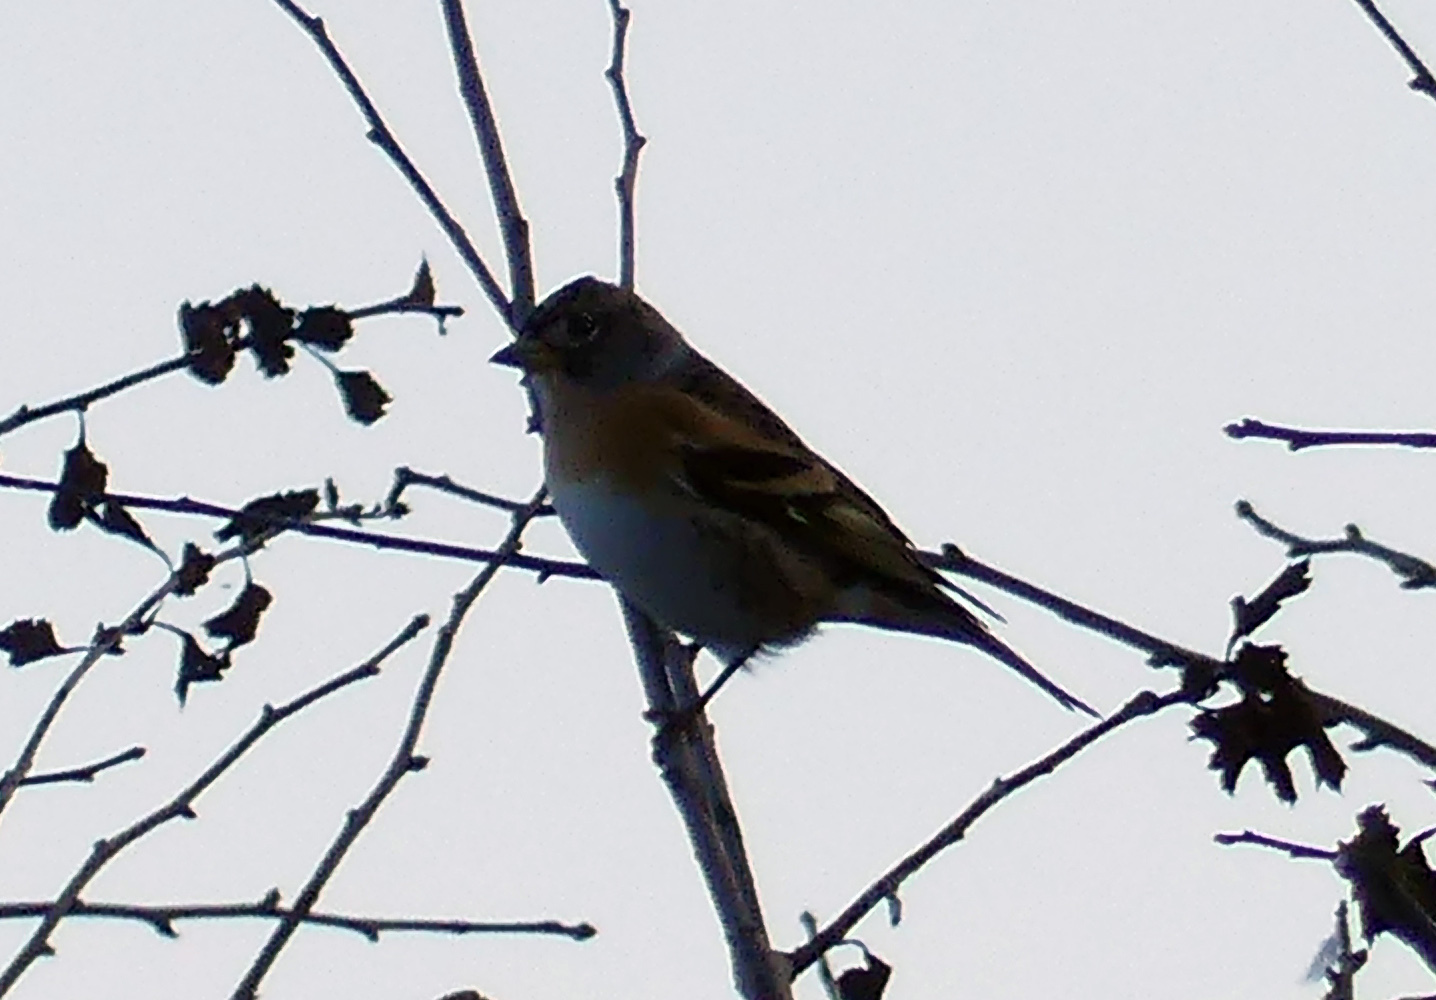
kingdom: Animalia
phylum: Chordata
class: Aves
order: Passeriformes
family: Fringillidae
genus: Fringilla
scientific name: Fringilla montifringilla
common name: Brambling
